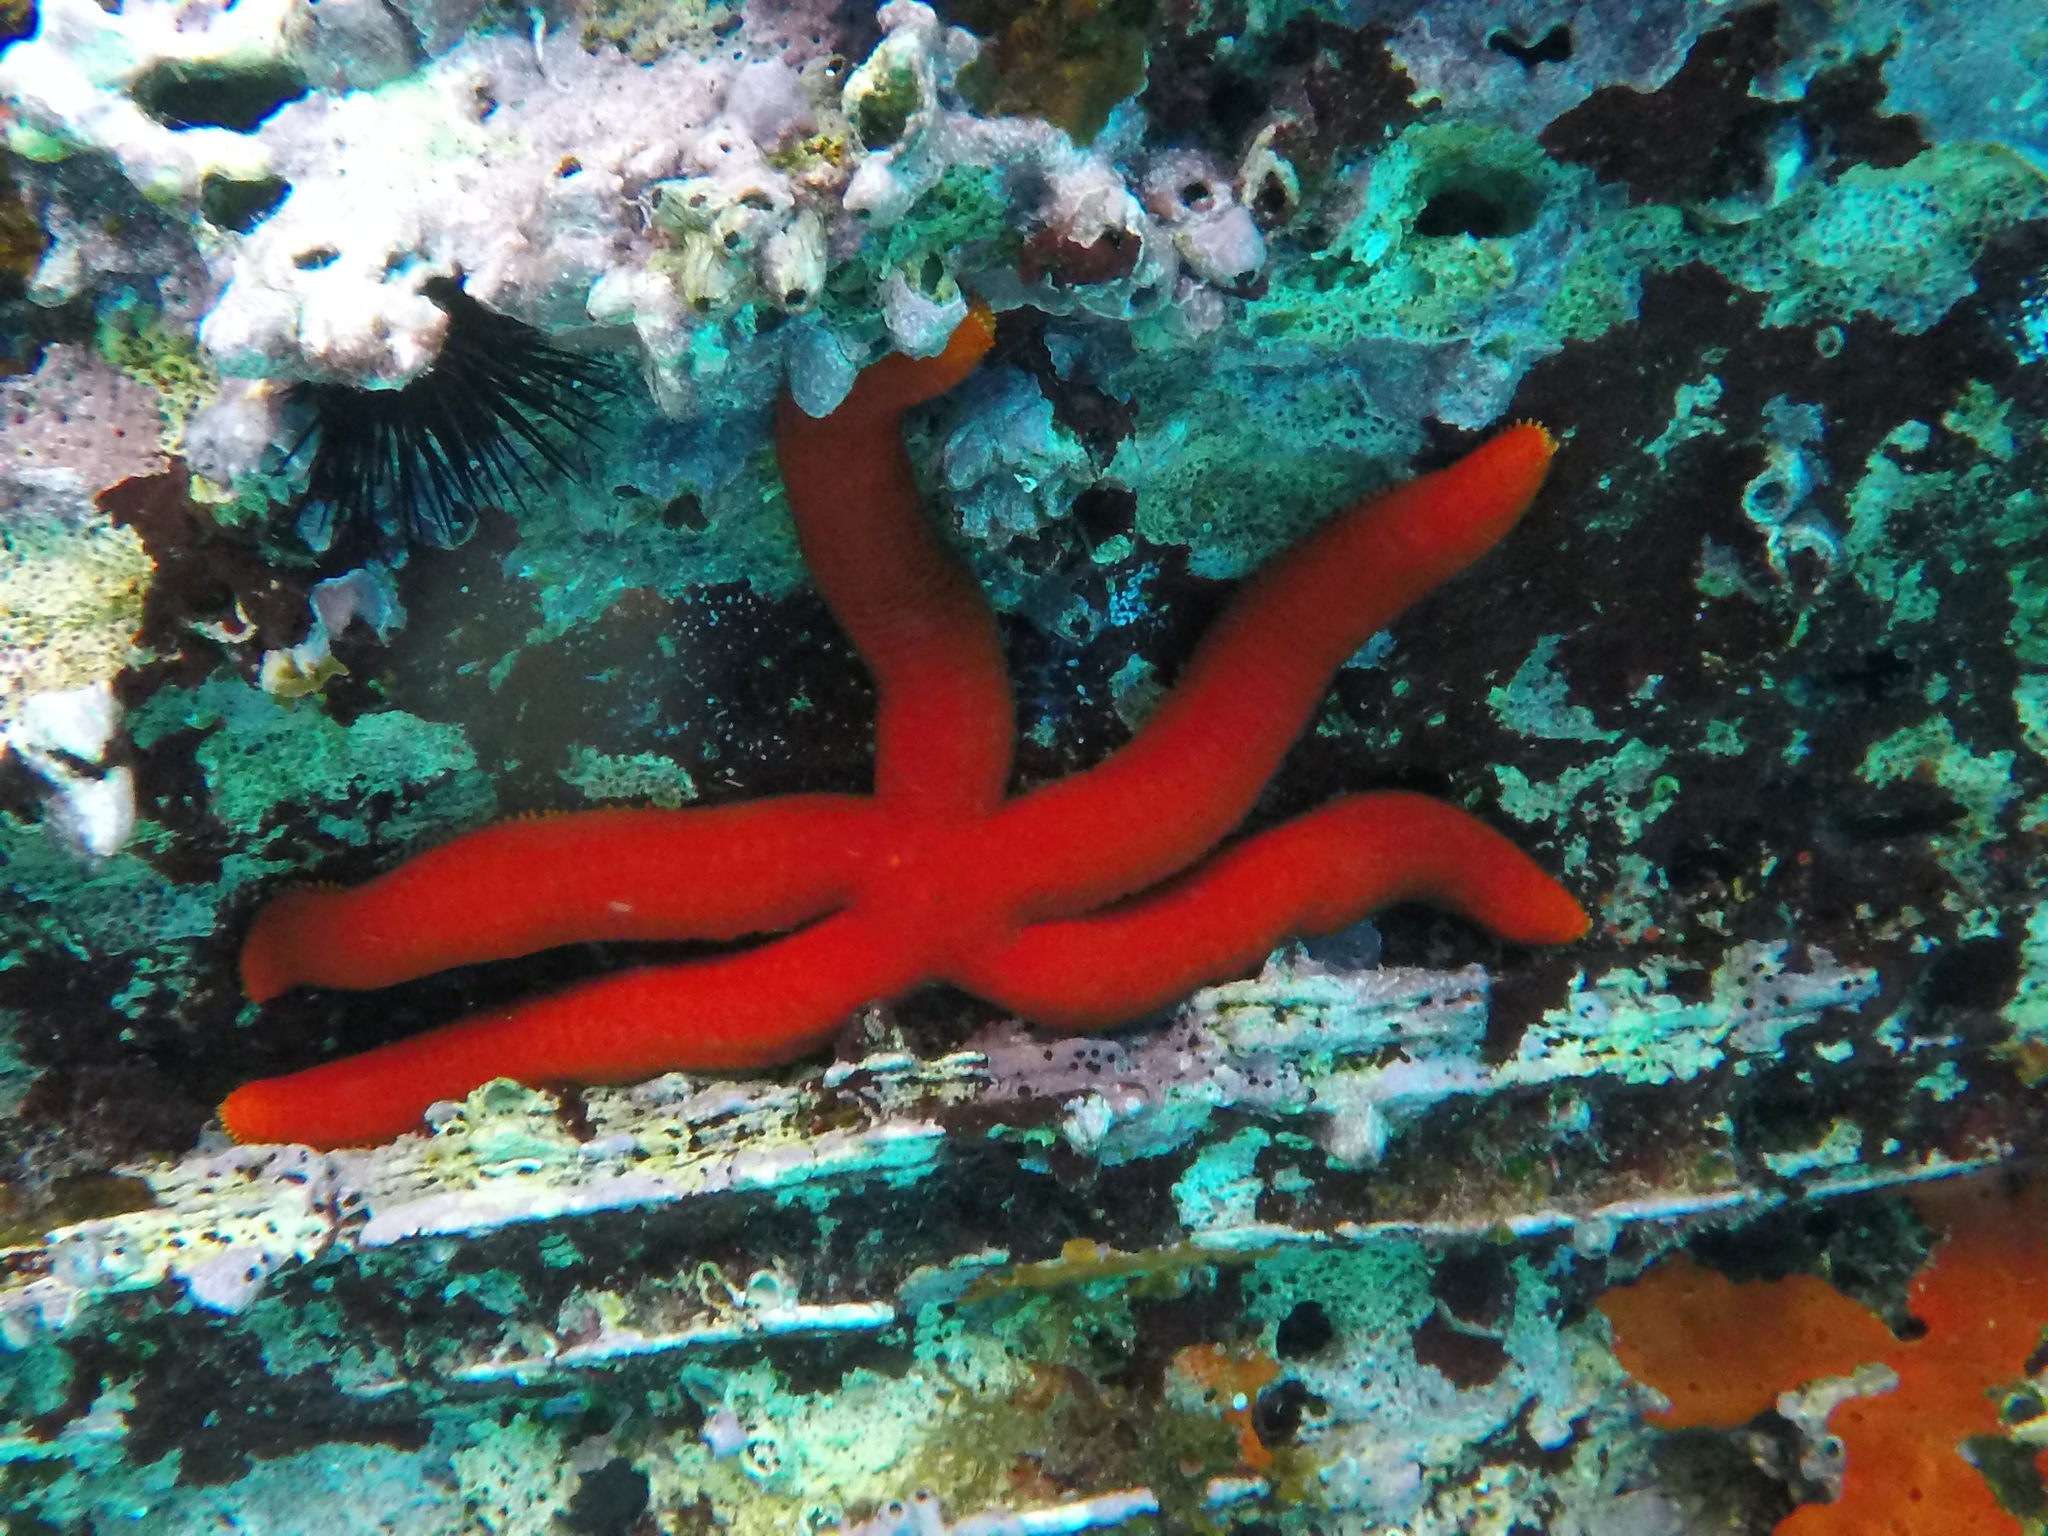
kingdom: Animalia
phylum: Echinodermata
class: Asteroidea
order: Valvatida
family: Ophidiasteridae
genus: Ophidiaster
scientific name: Ophidiaster ophidianus
